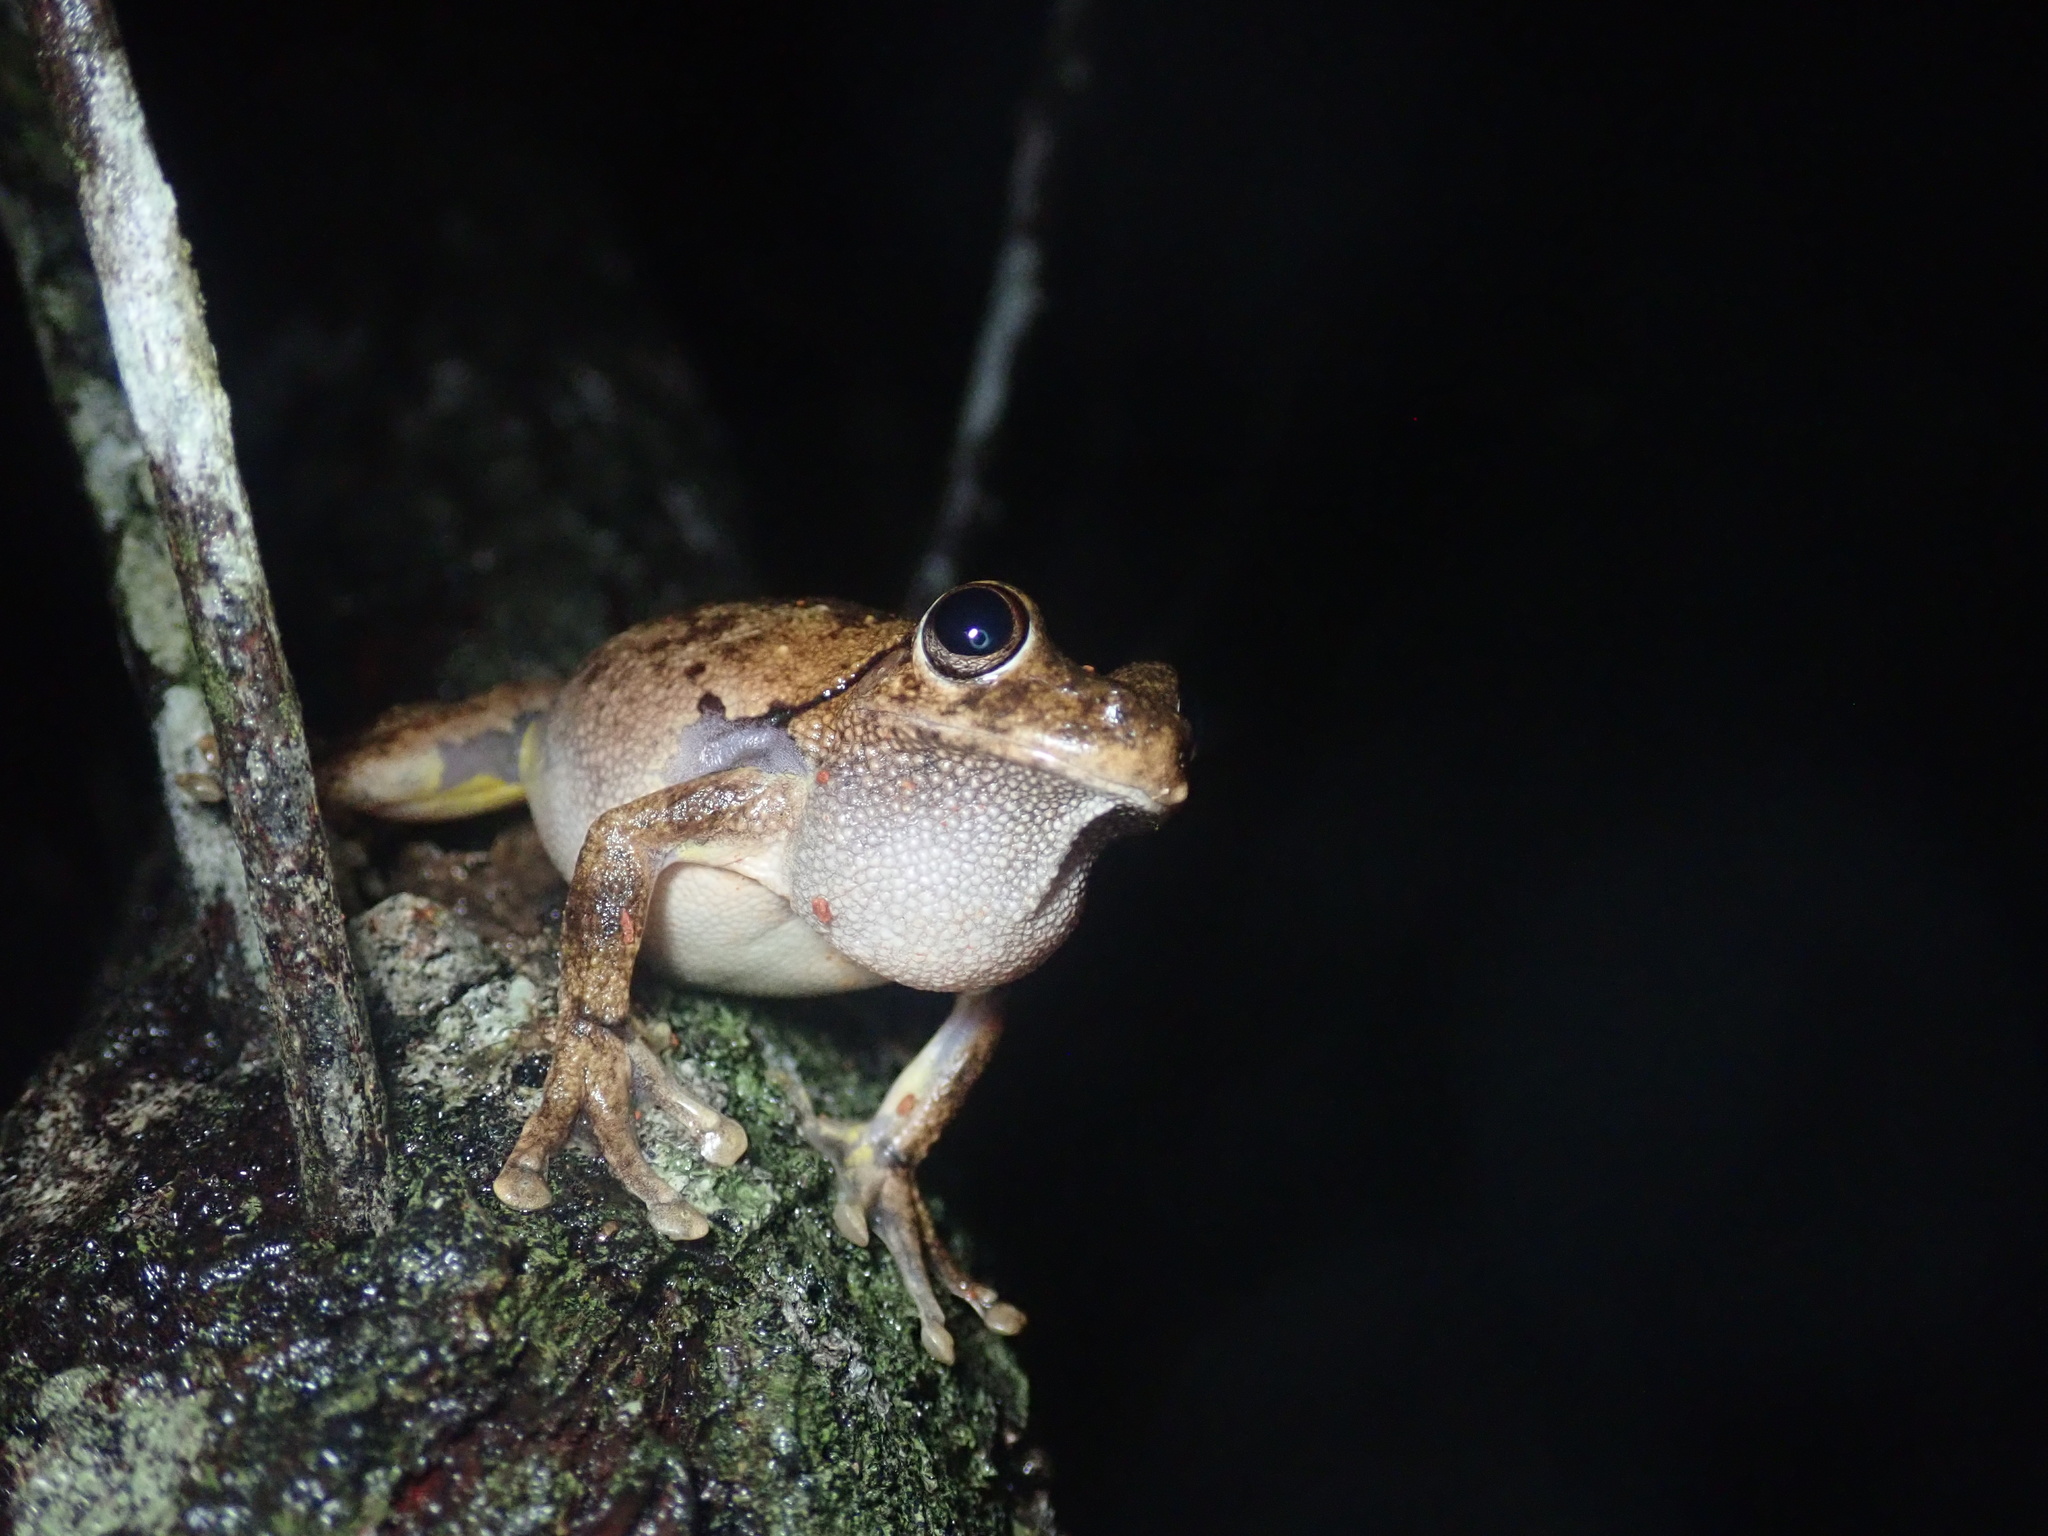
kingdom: Animalia
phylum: Chordata
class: Amphibia
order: Anura
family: Pelodryadidae
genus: Litoria
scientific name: Litoria rothii
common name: Roth’s tree frog
